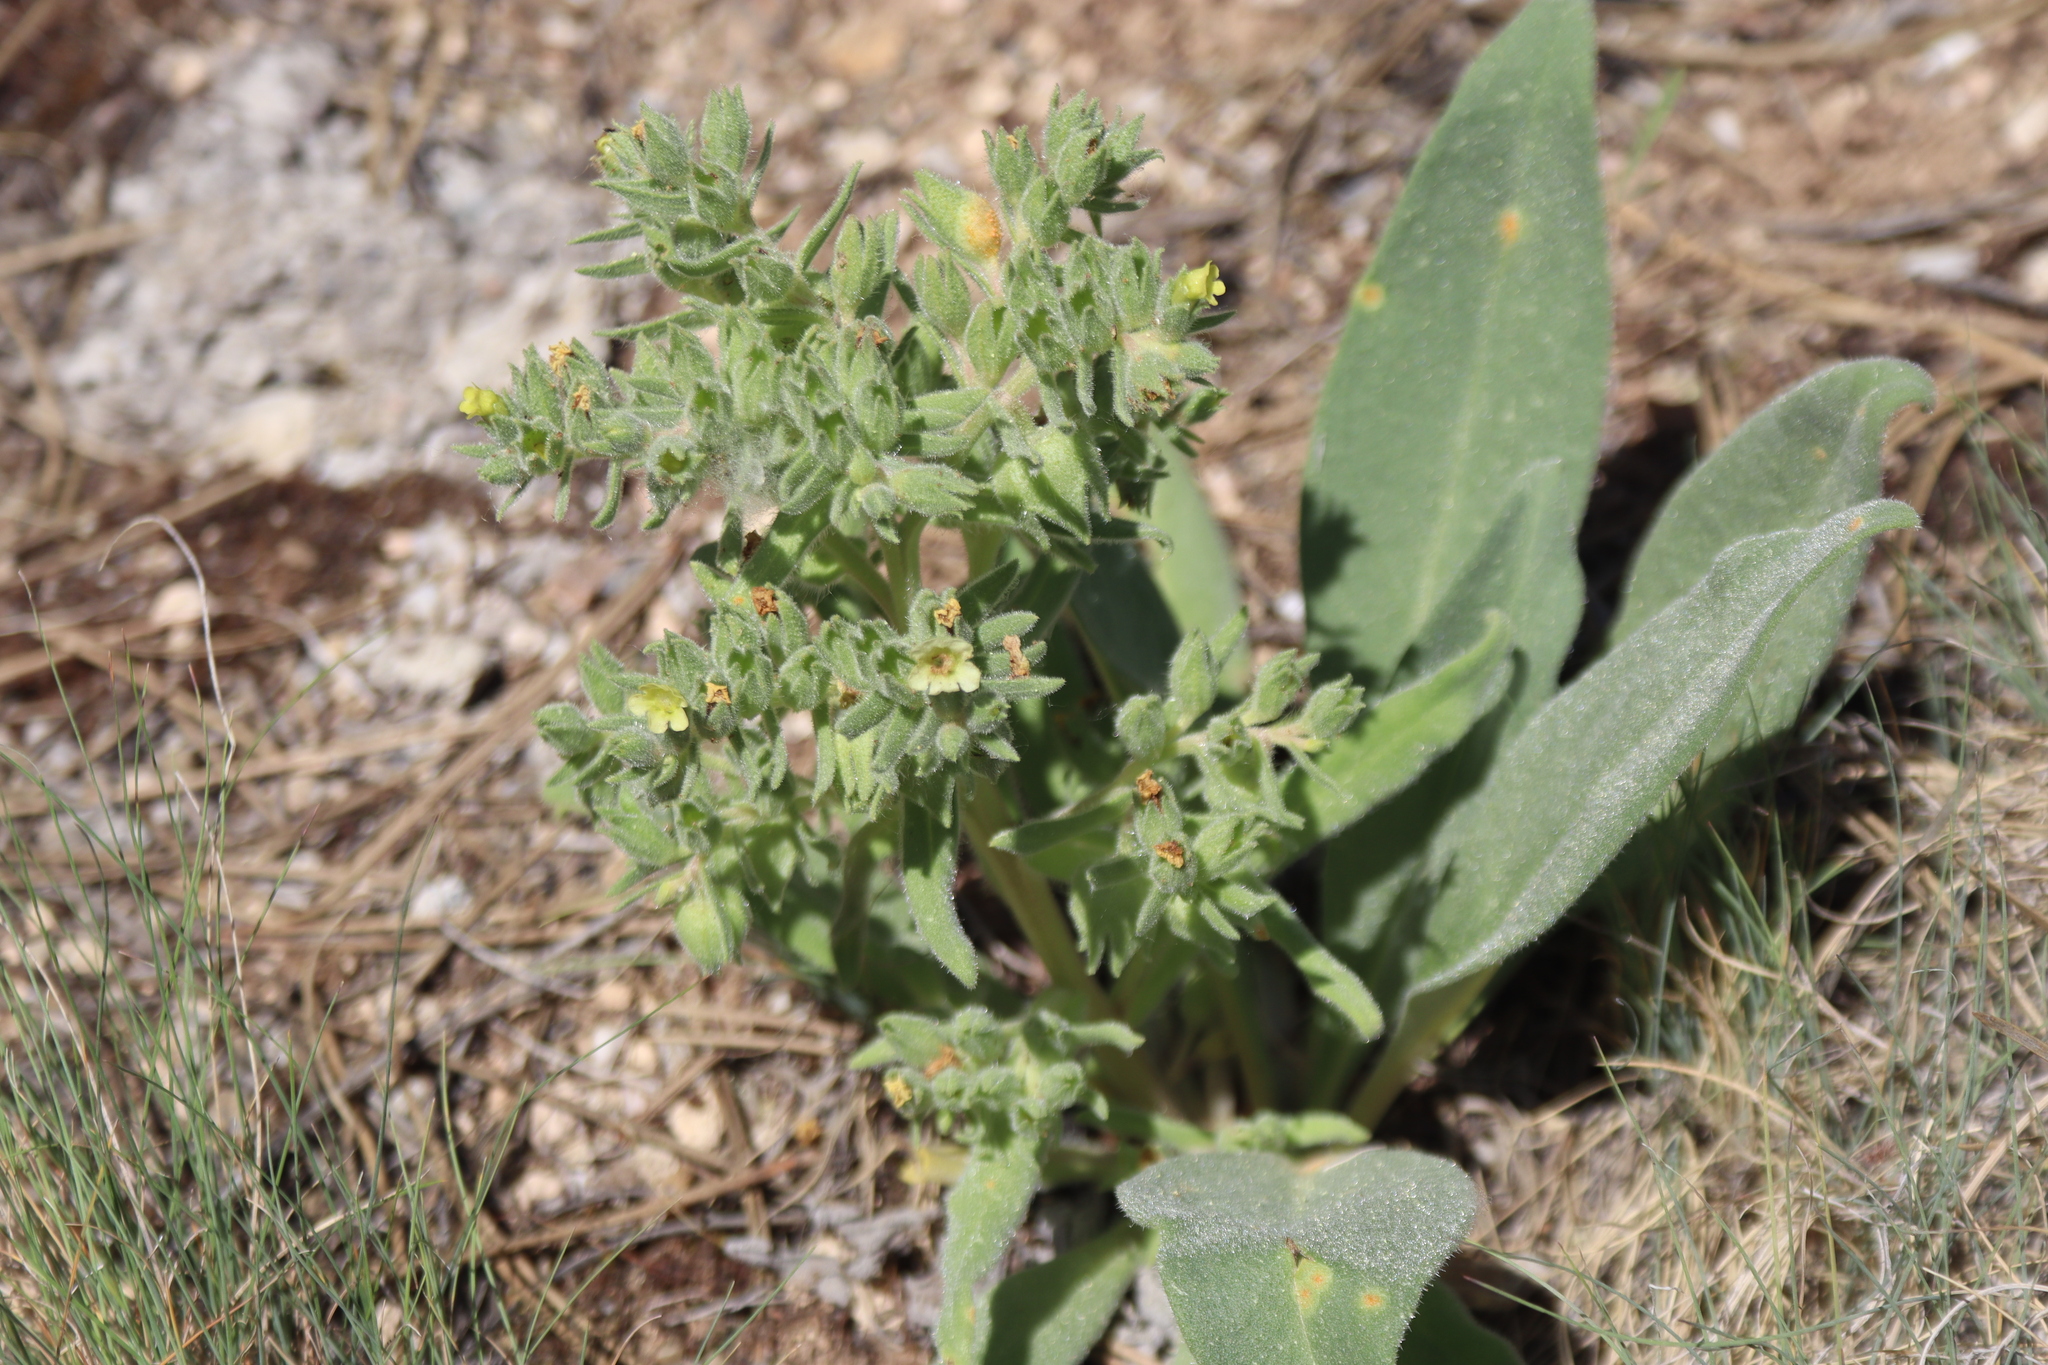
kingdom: Plantae
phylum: Tracheophyta
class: Magnoliopsida
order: Boraginales
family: Boraginaceae
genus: Nonea
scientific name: Nonea pulla
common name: Brown nonea
